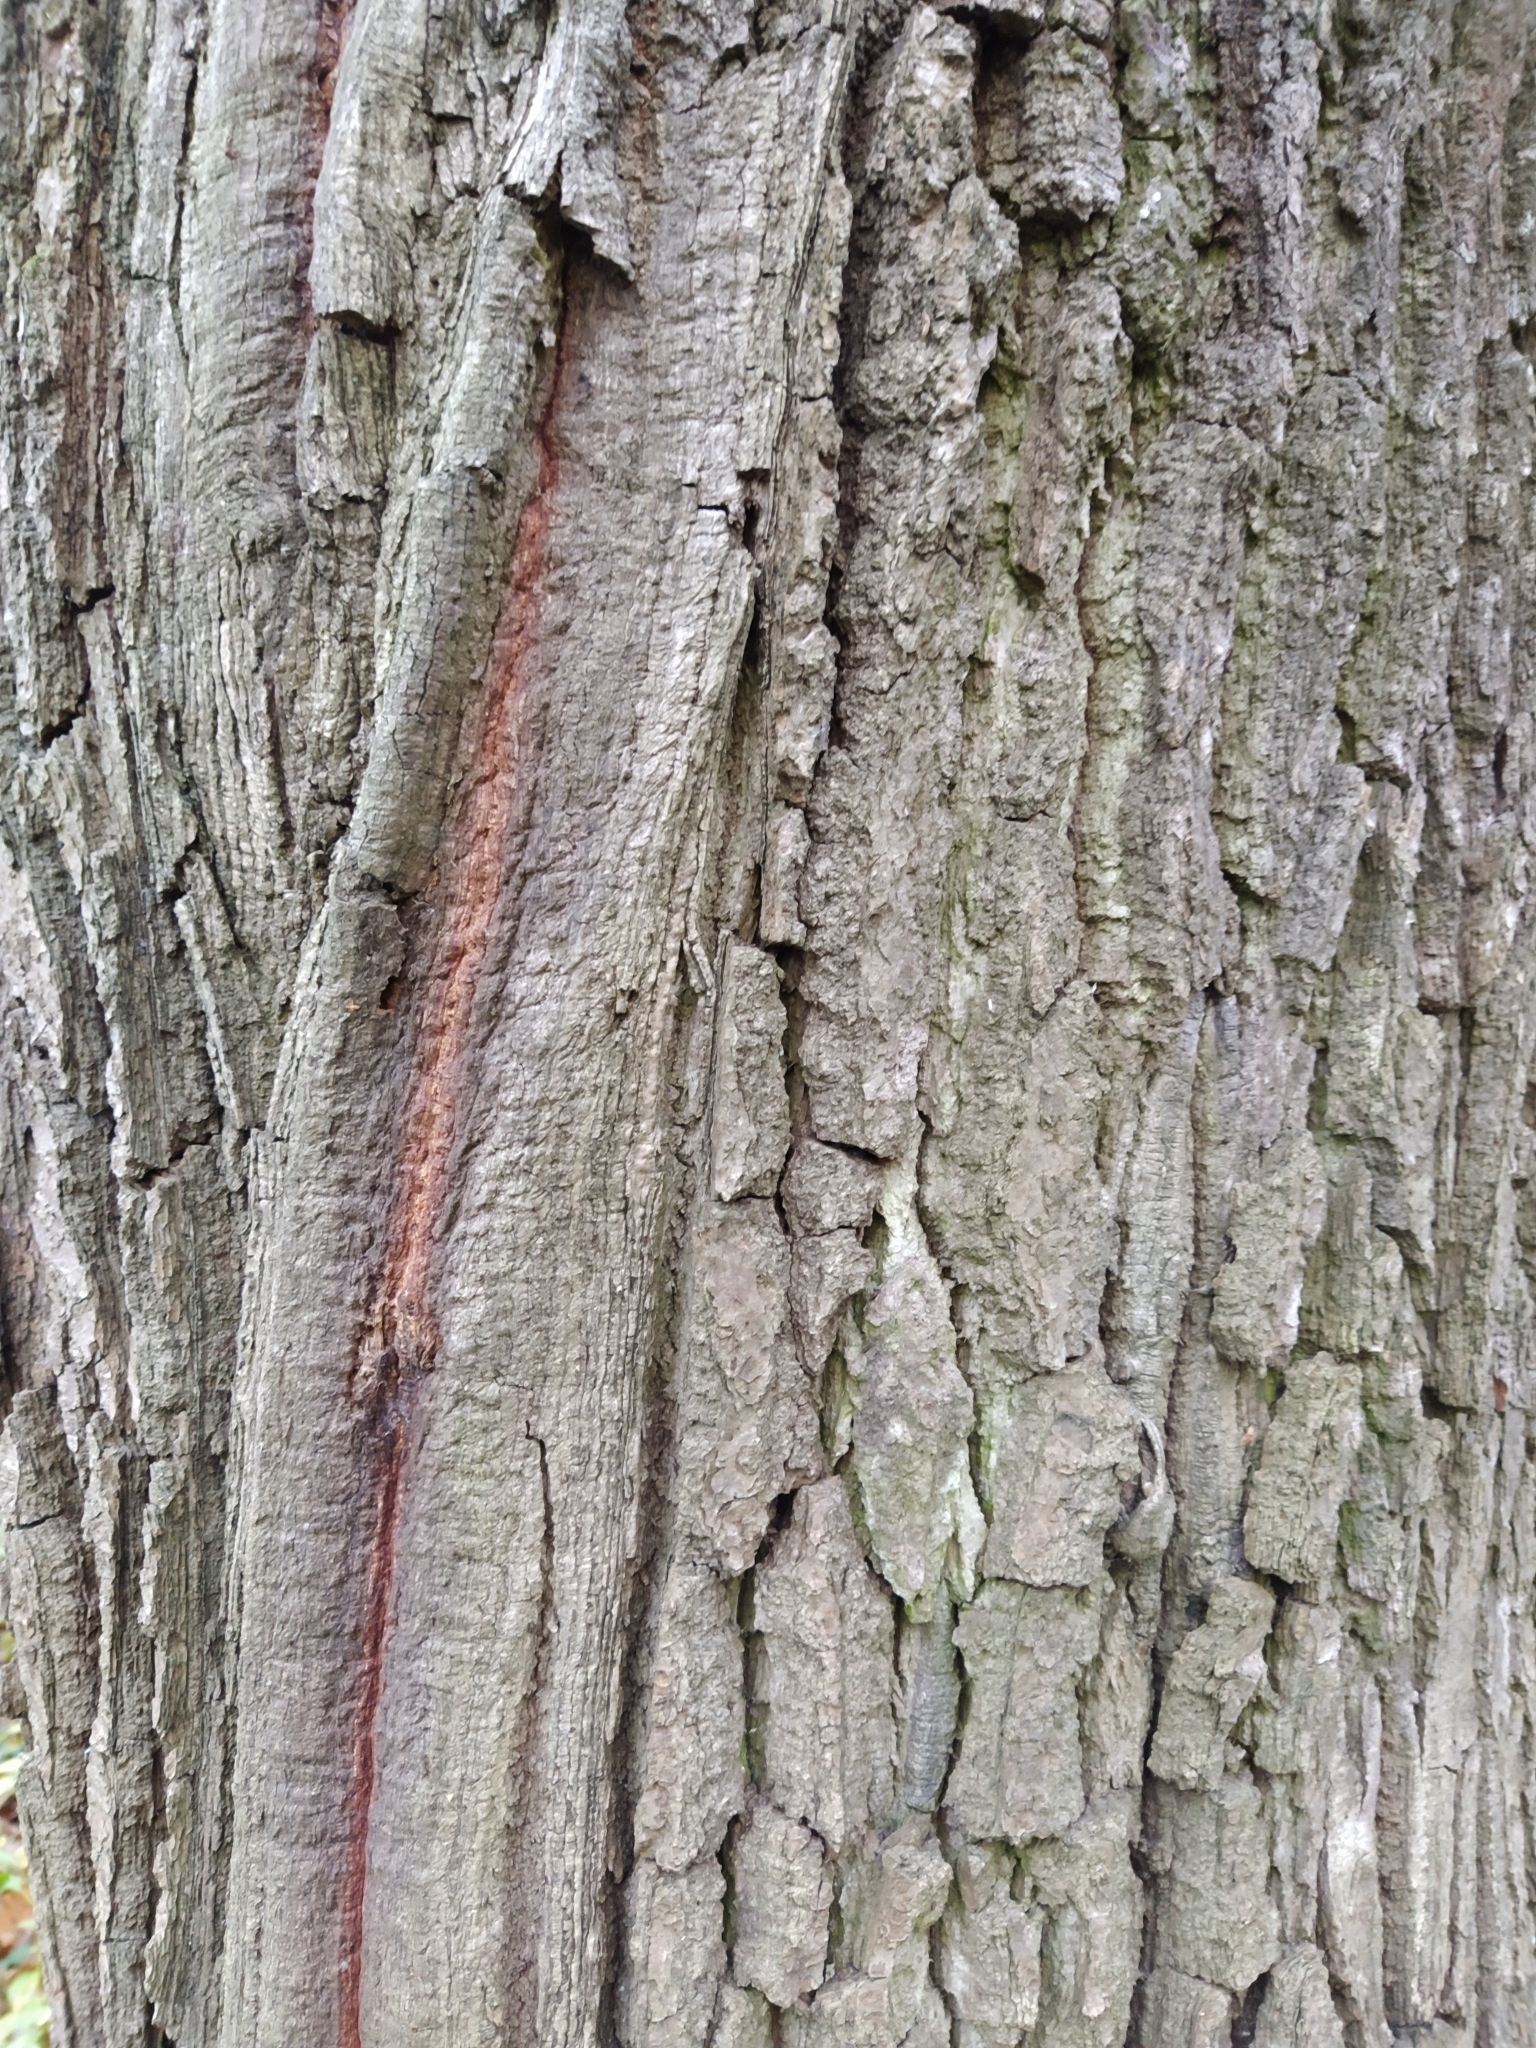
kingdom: Plantae
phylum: Tracheophyta
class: Magnoliopsida
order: Fagales
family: Fagaceae
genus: Quercus
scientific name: Quercus robur
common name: Pedunculate oak
